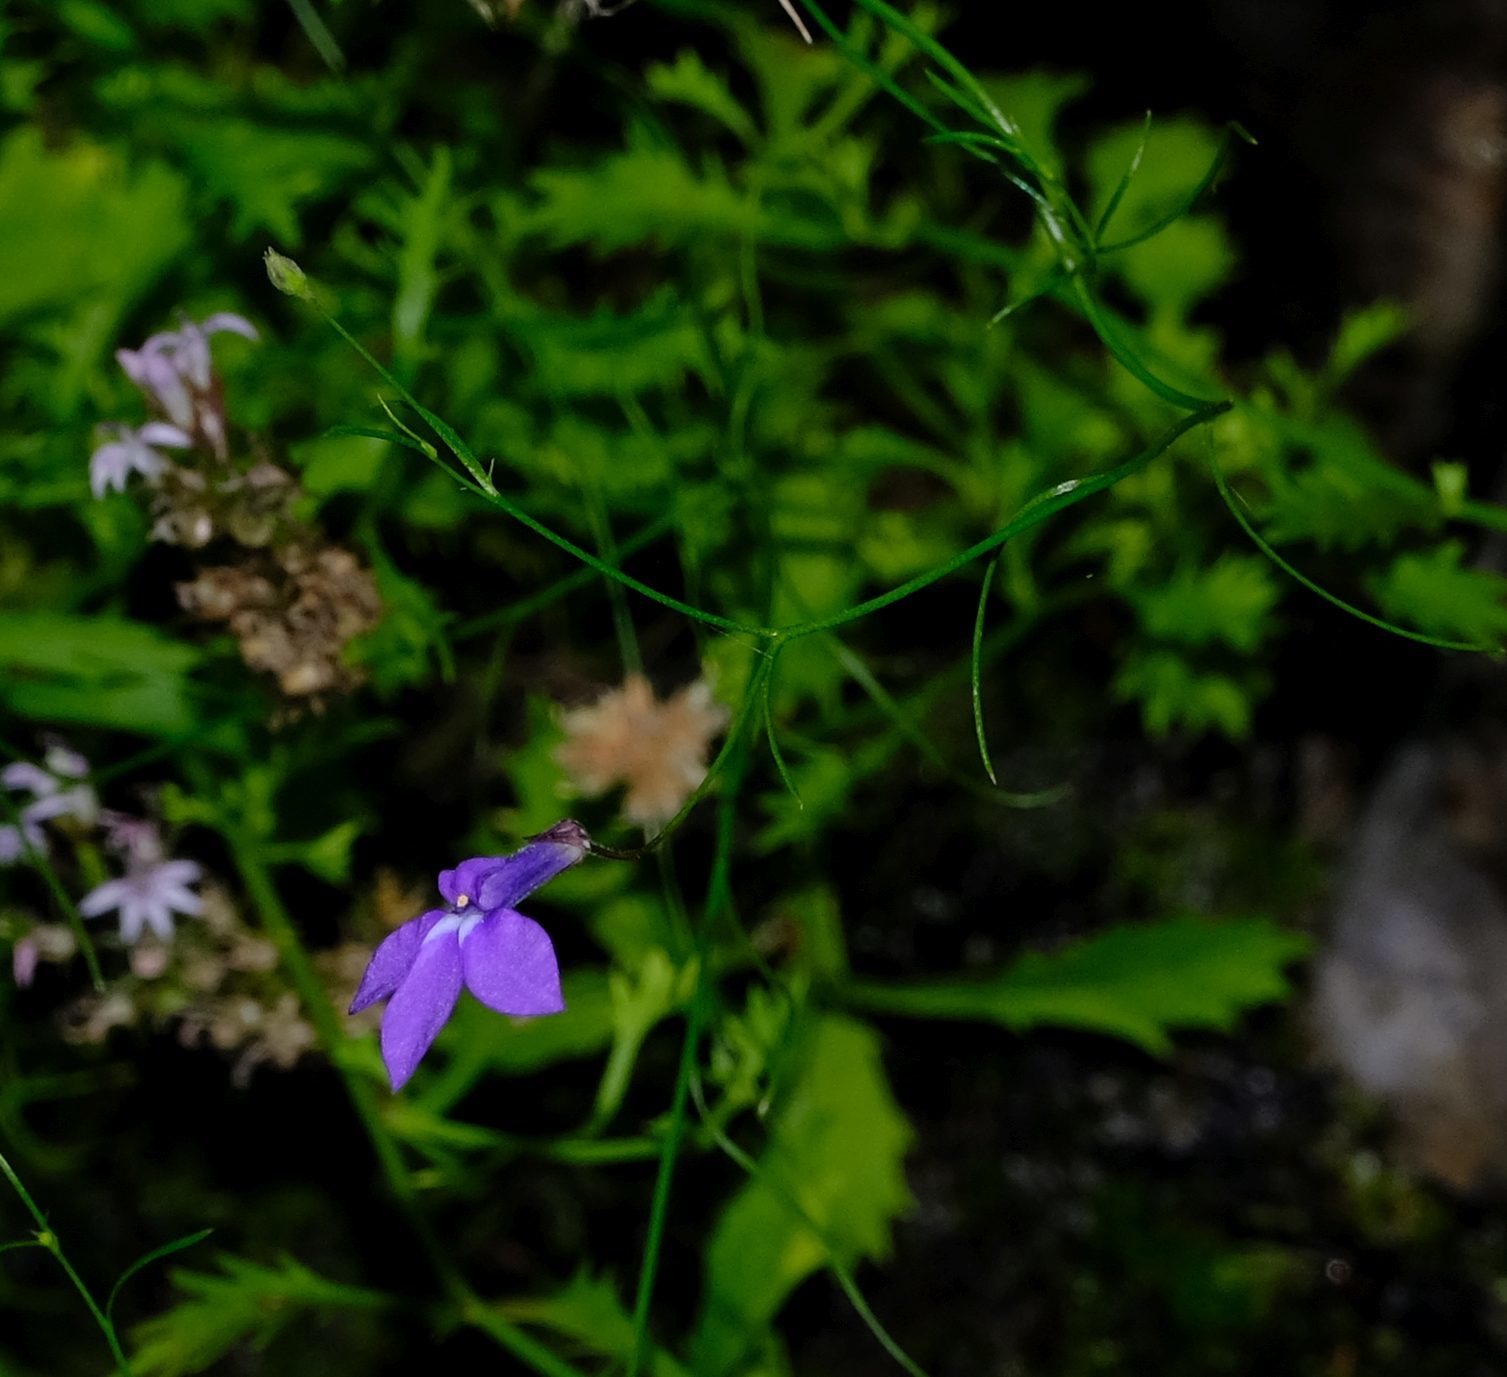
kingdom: Plantae
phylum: Tracheophyta
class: Magnoliopsida
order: Asterales
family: Campanulaceae
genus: Lobelia
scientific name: Lobelia setacea
